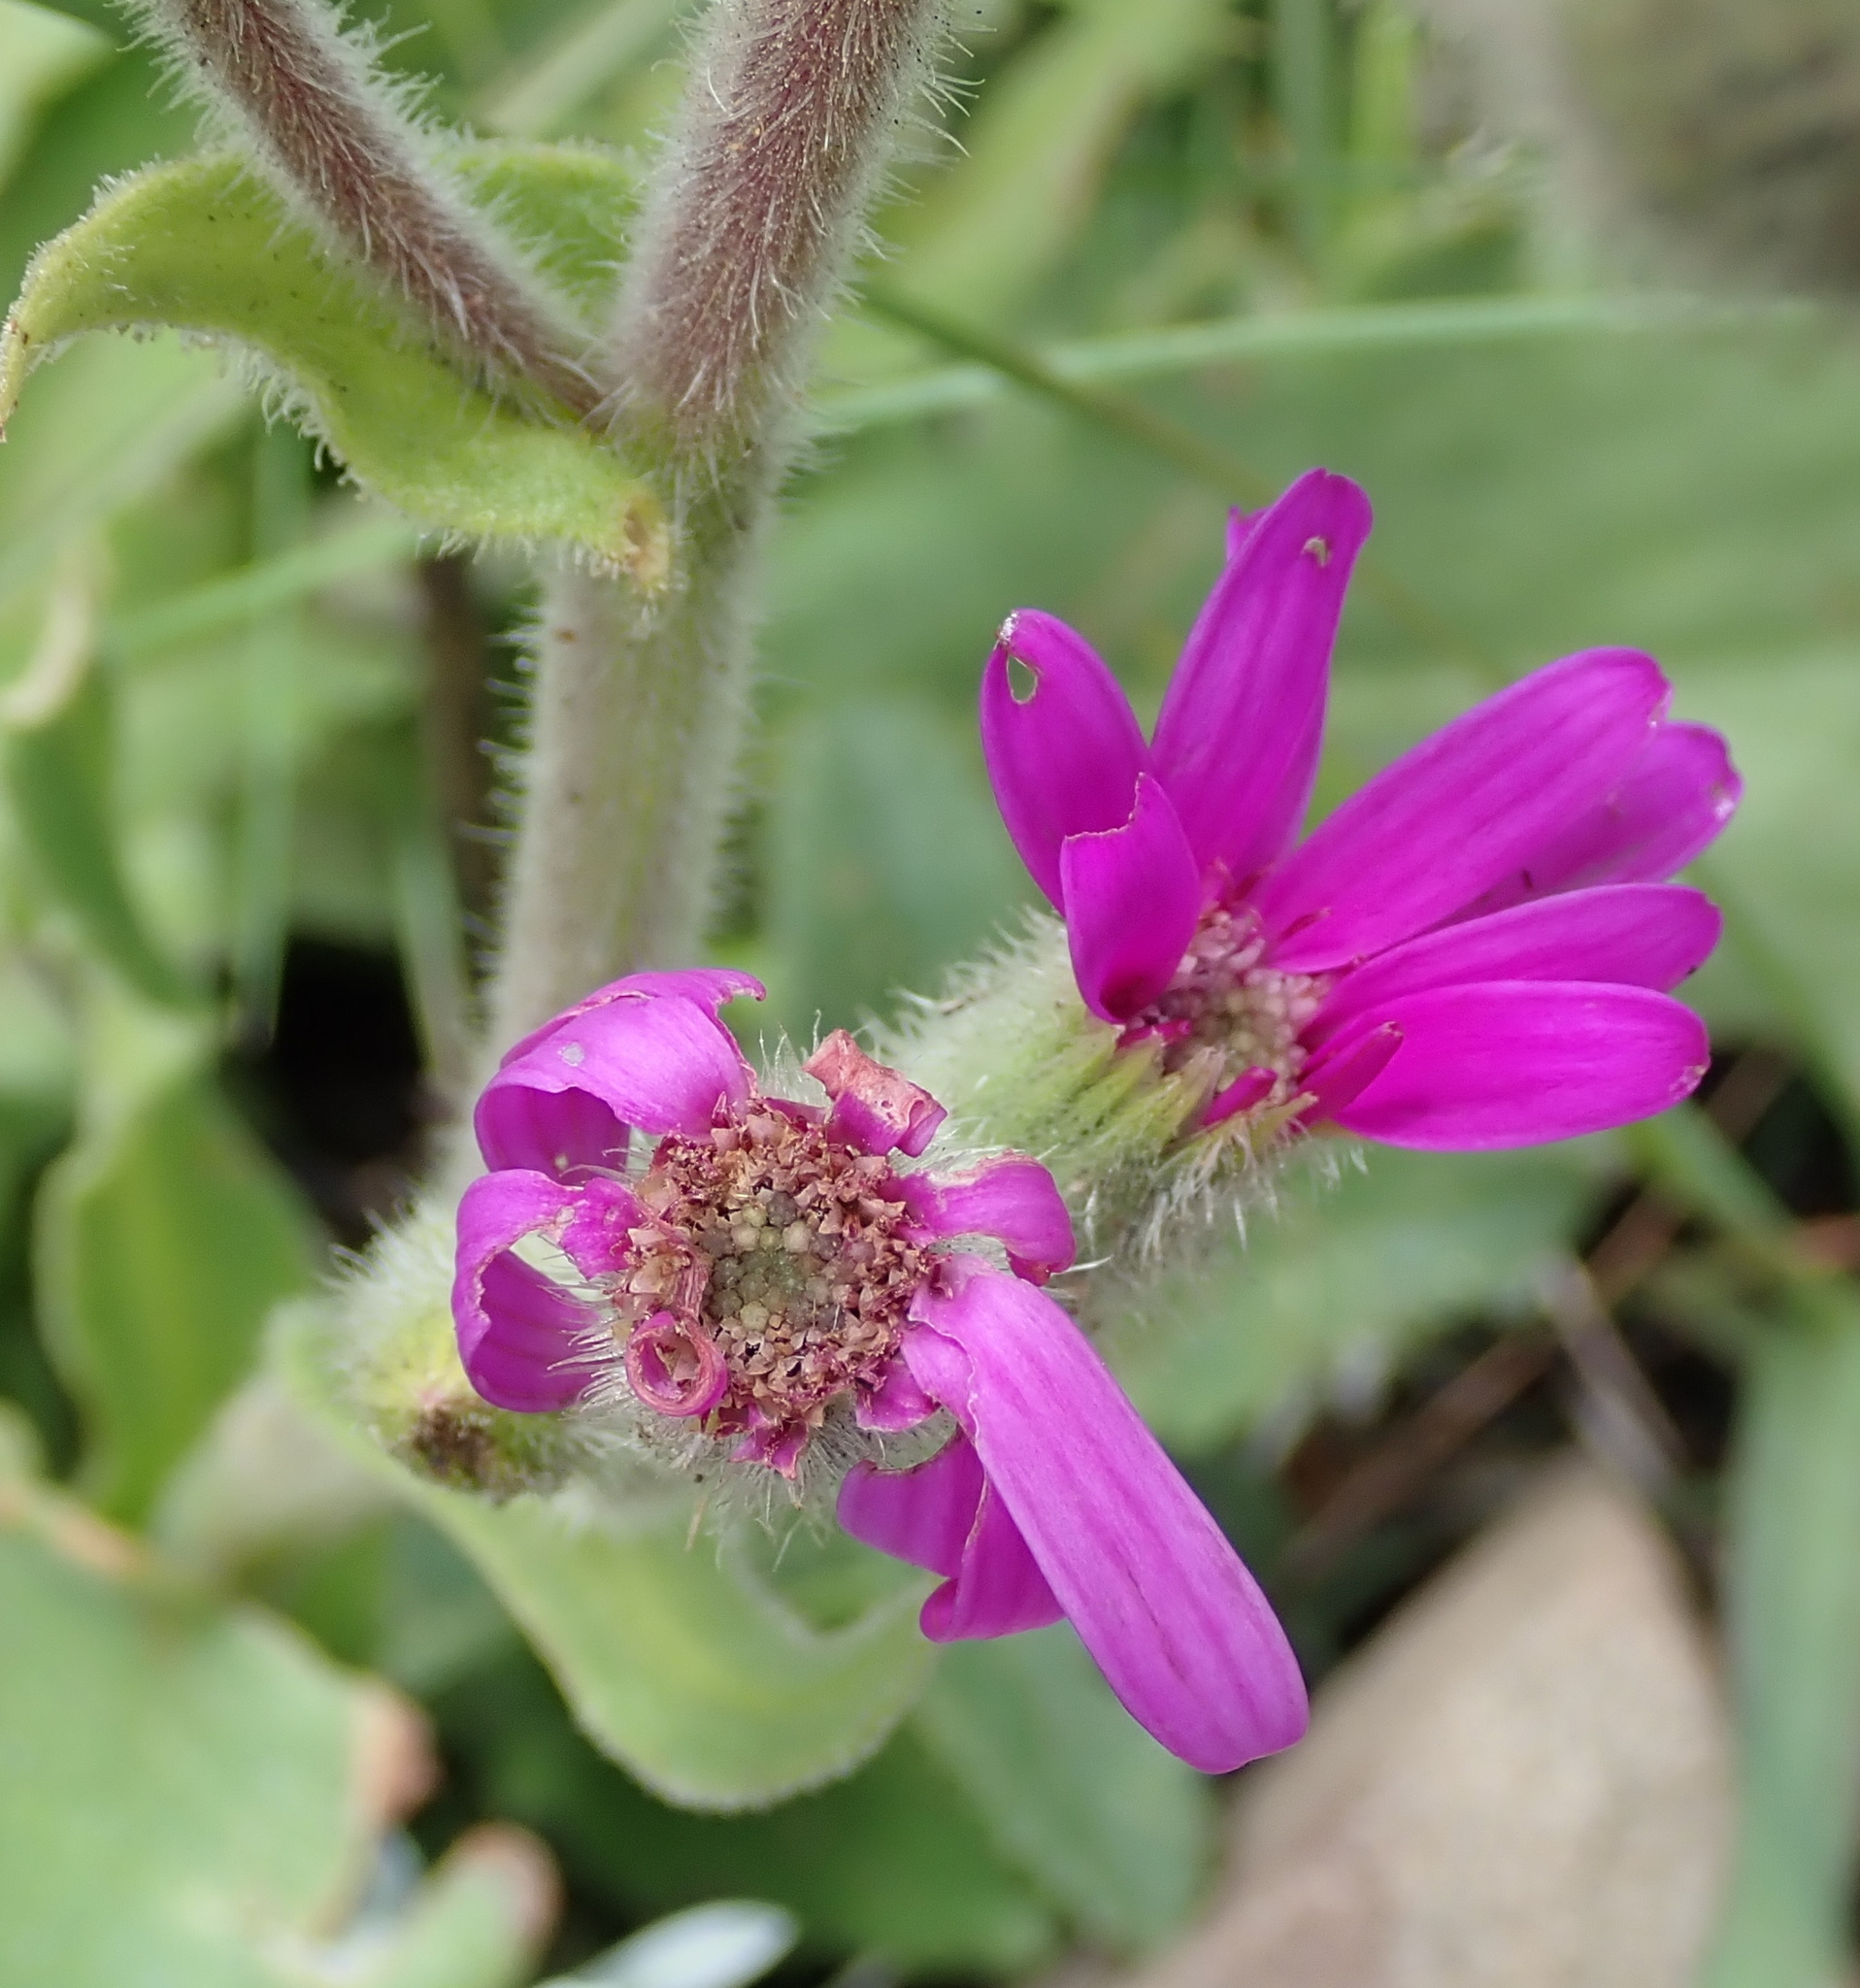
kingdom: Plantae
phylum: Tracheophyta
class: Magnoliopsida
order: Asterales
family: Asteraceae
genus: Senecio
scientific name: Senecio speciosus
